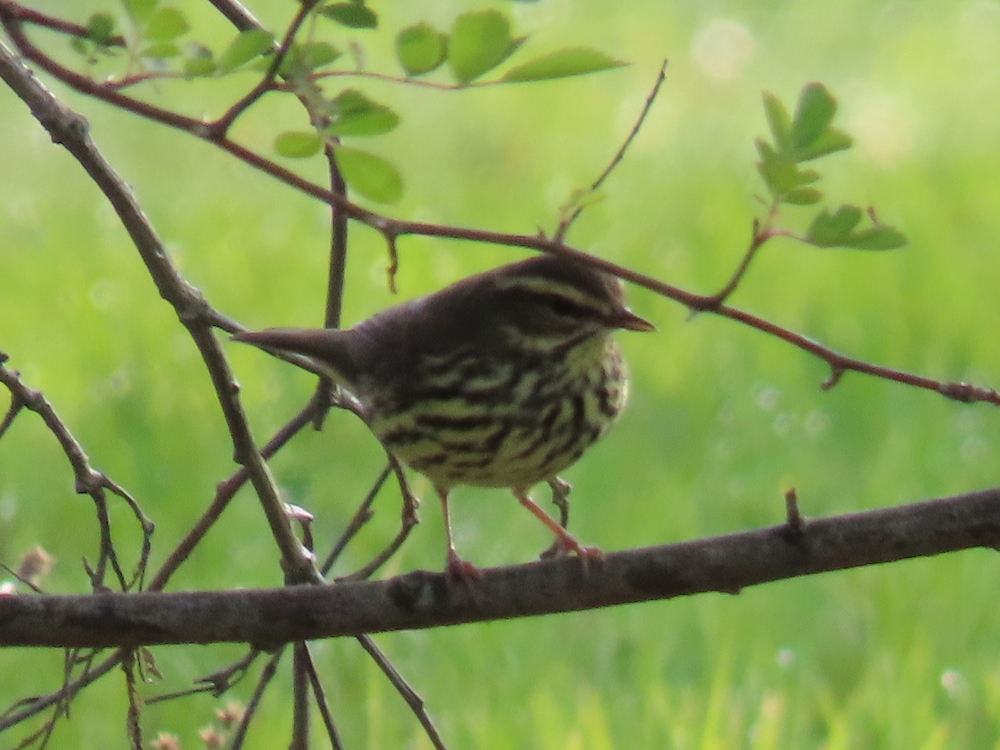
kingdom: Animalia
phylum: Chordata
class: Aves
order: Passeriformes
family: Parulidae
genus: Parkesia
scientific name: Parkesia noveboracensis
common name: Northern waterthrush
